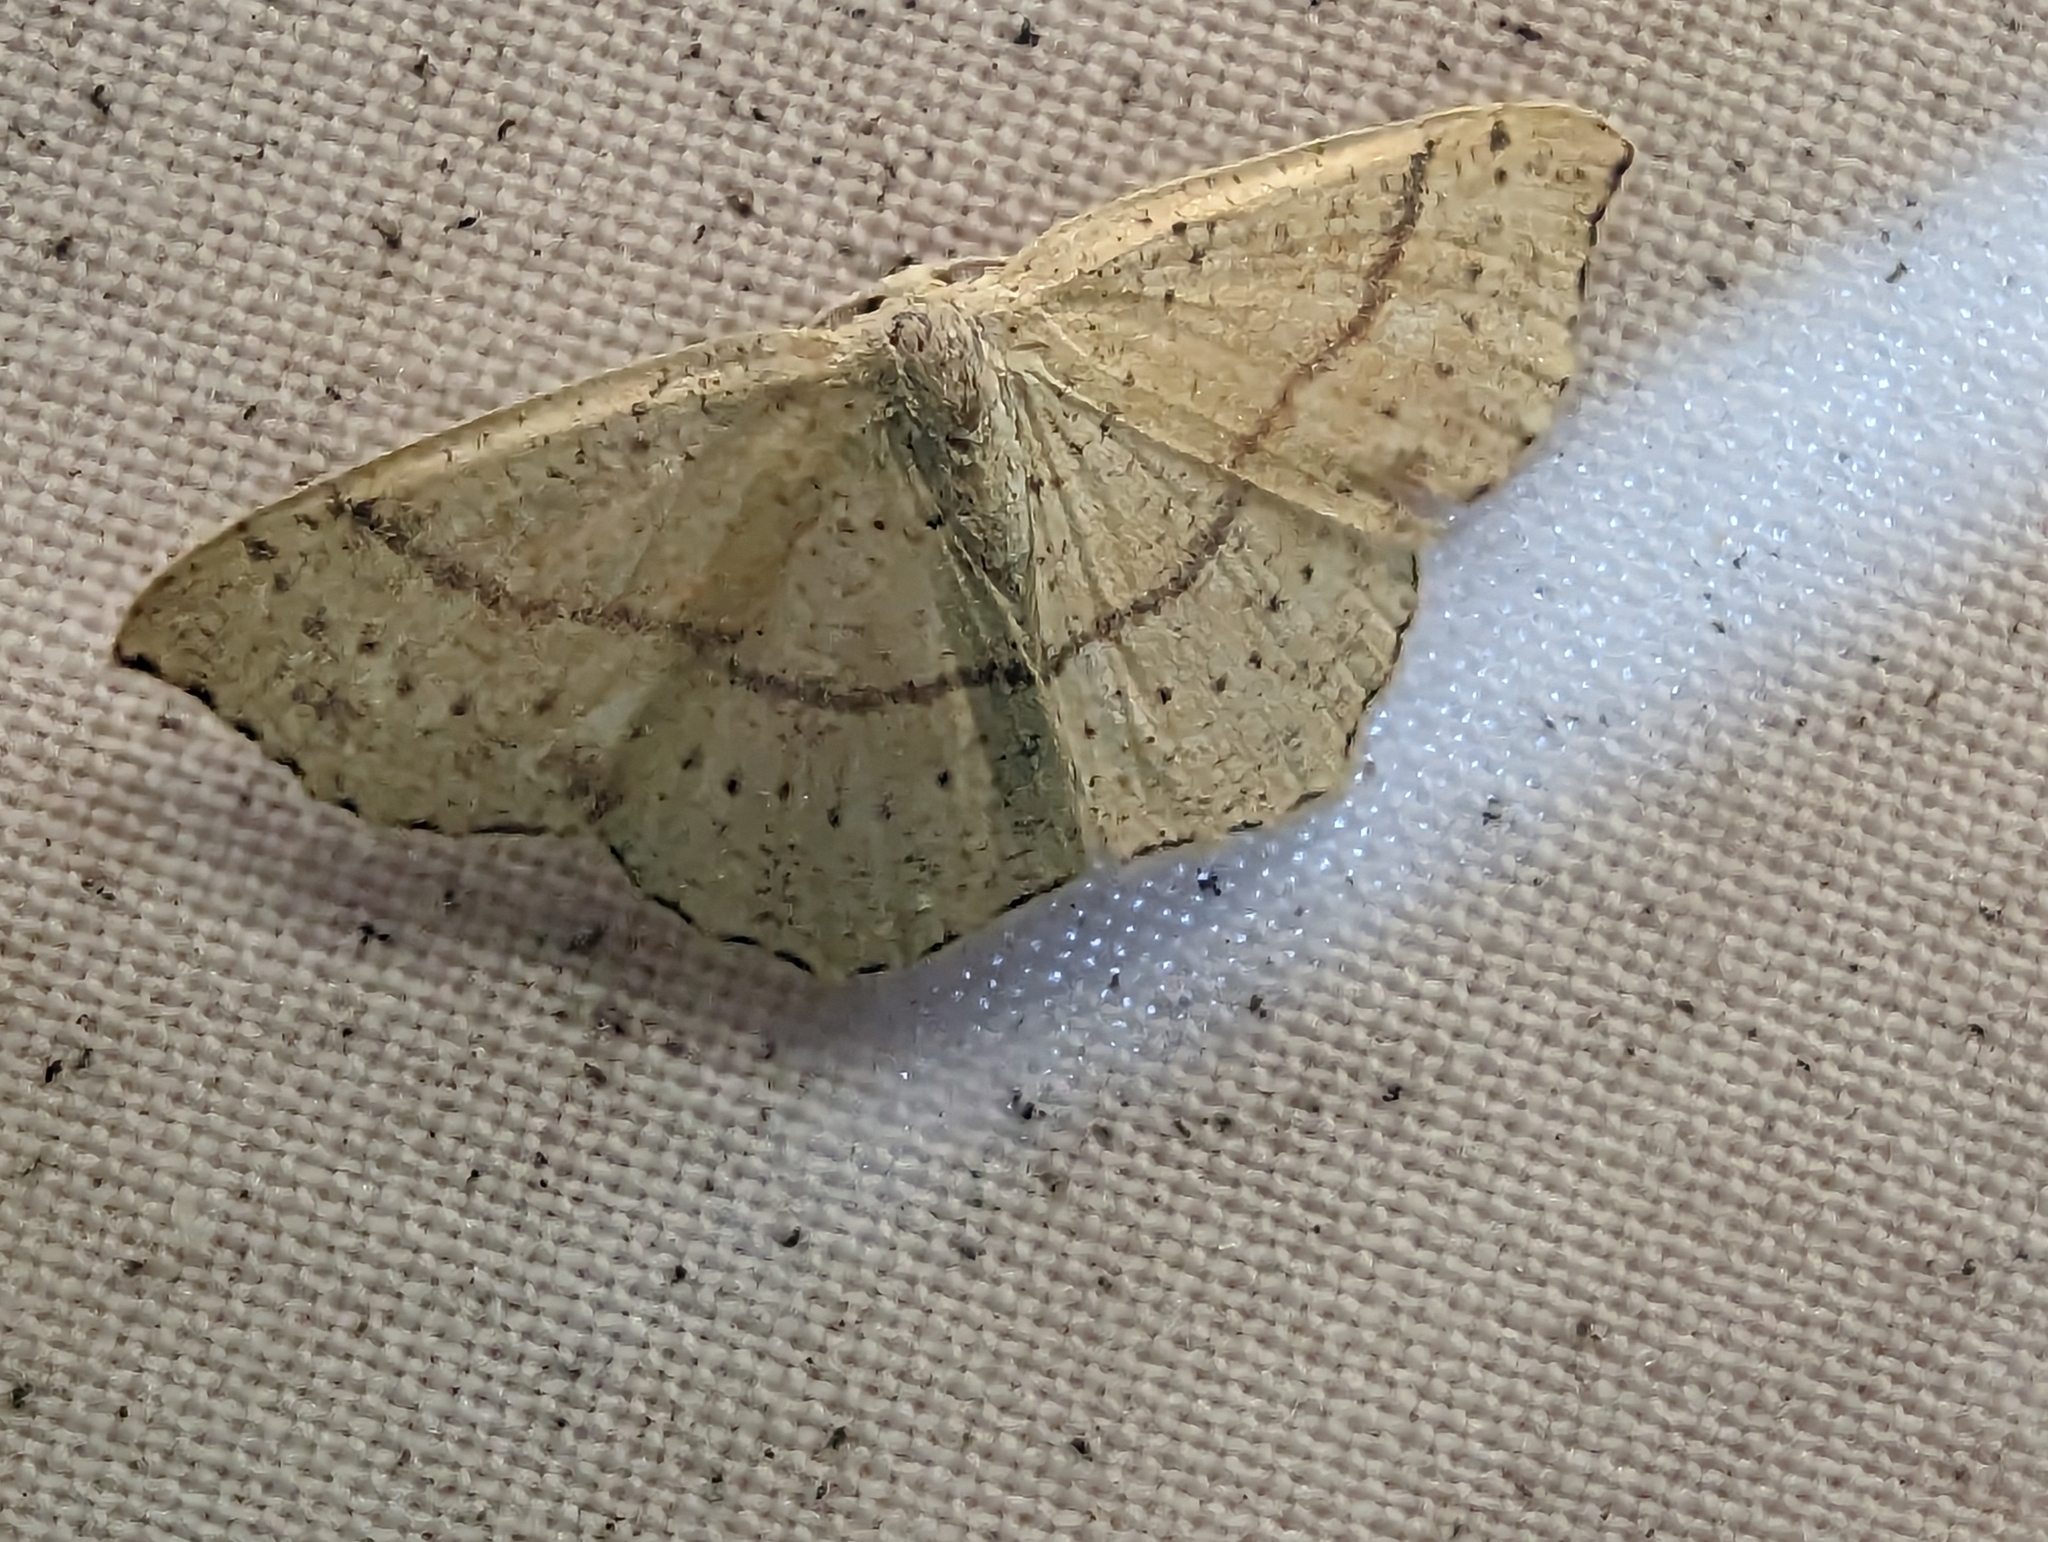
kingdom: Animalia
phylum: Arthropoda
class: Insecta
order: Lepidoptera
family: Geometridae
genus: Cyclophora
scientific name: Cyclophora punctaria
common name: Maiden's blush
